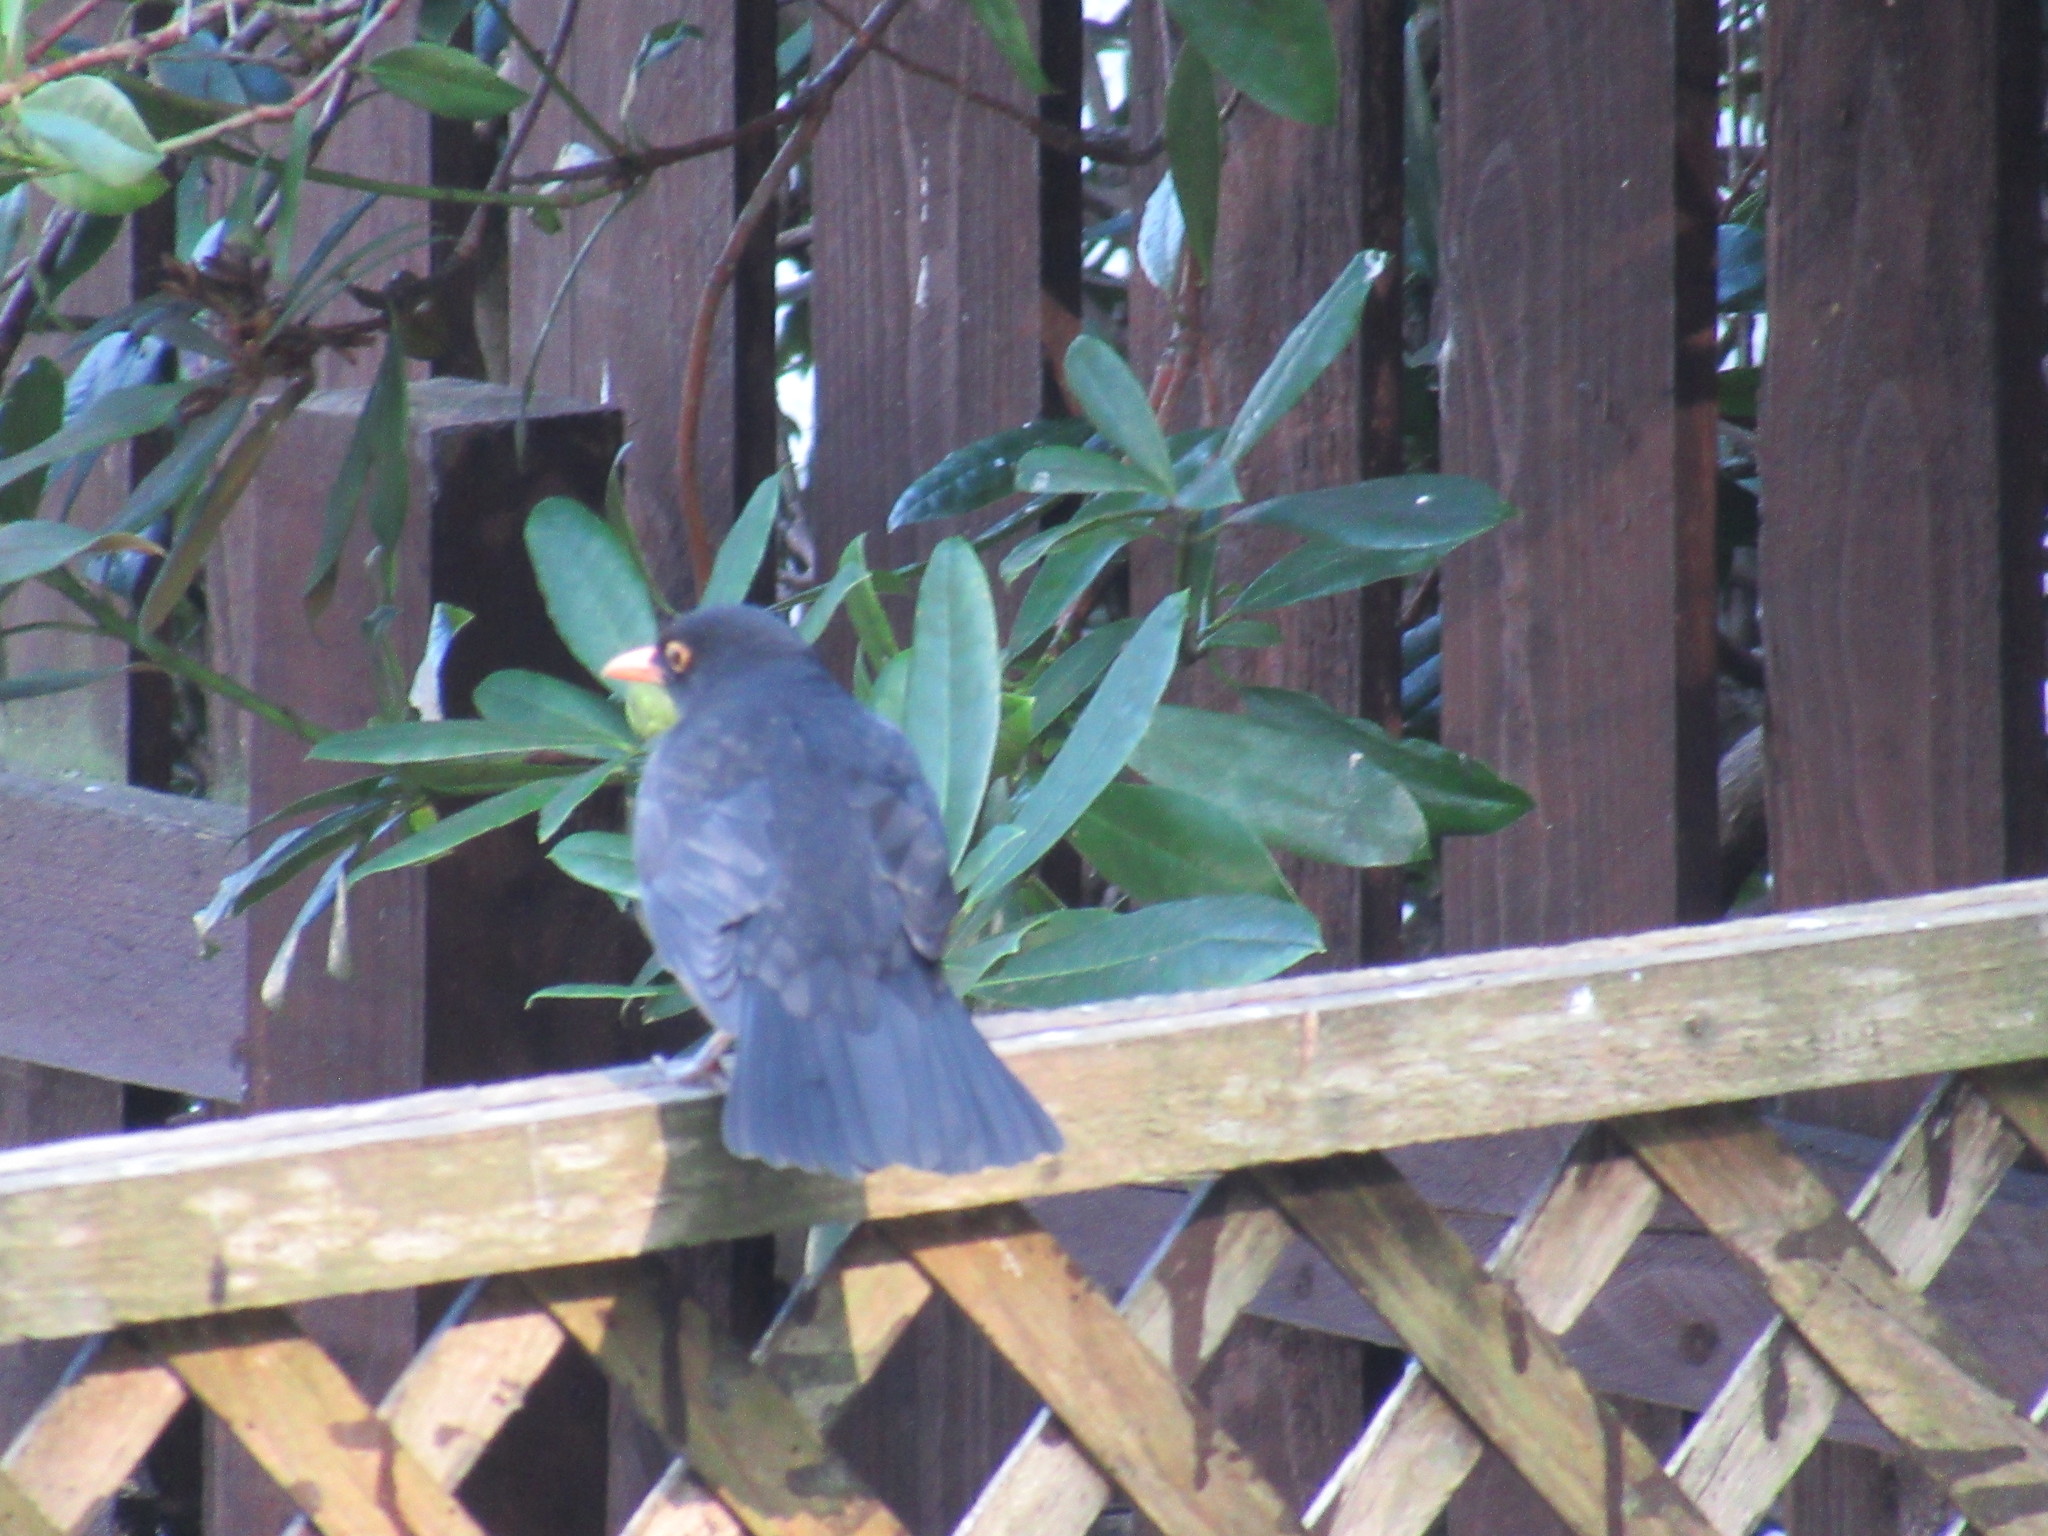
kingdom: Animalia
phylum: Chordata
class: Aves
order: Passeriformes
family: Turdidae
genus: Turdus
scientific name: Turdus merula
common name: Common blackbird
